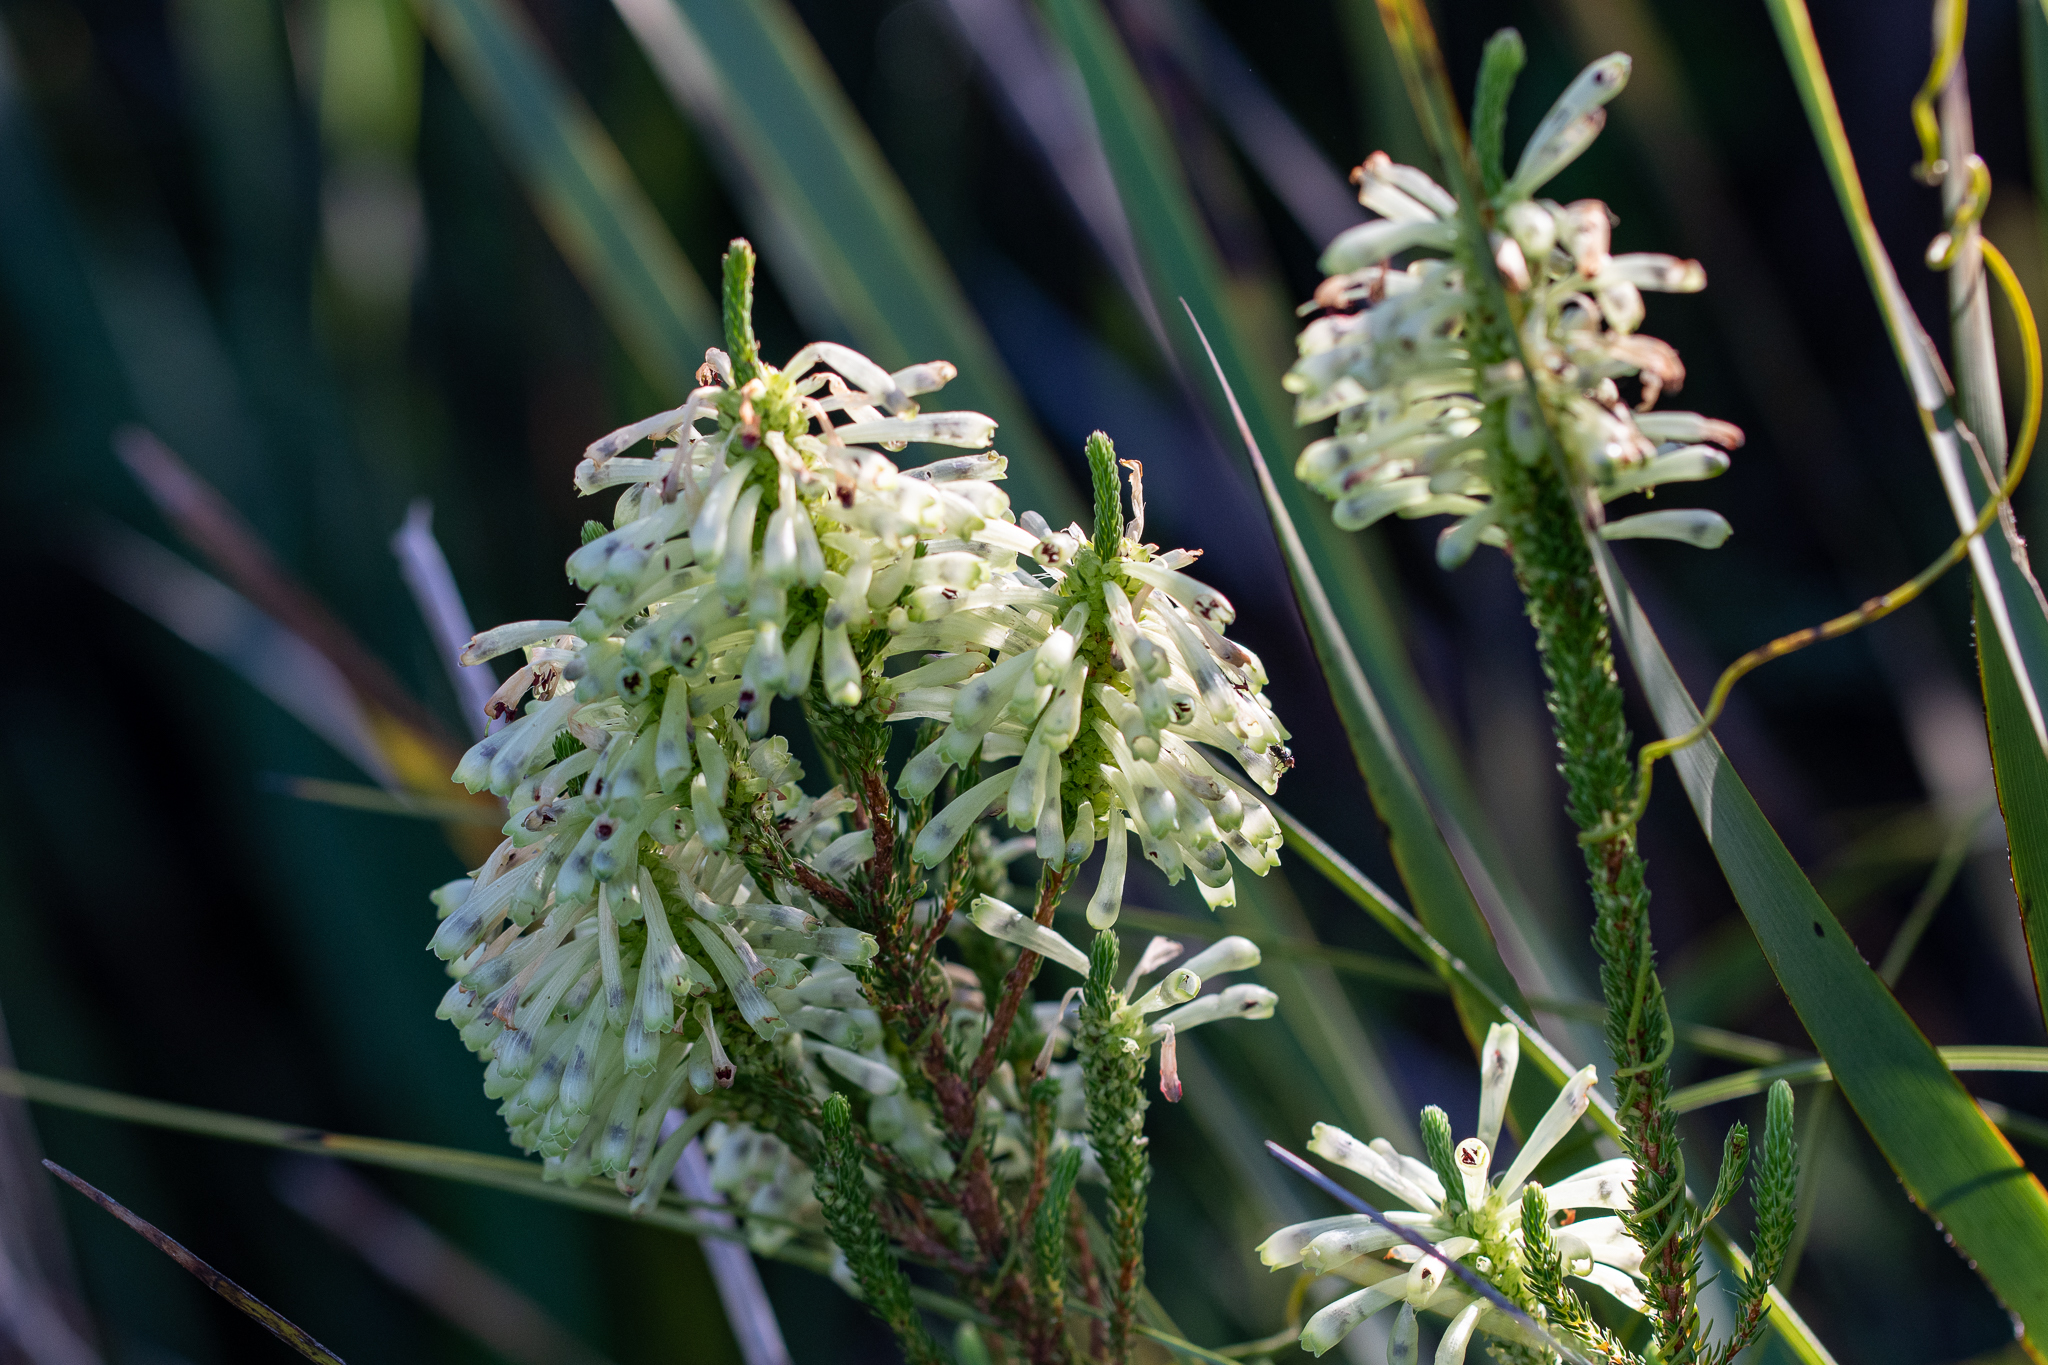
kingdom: Plantae
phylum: Tracheophyta
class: Magnoliopsida
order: Ericales
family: Ericaceae
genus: Erica
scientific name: Erica sessiliflora
